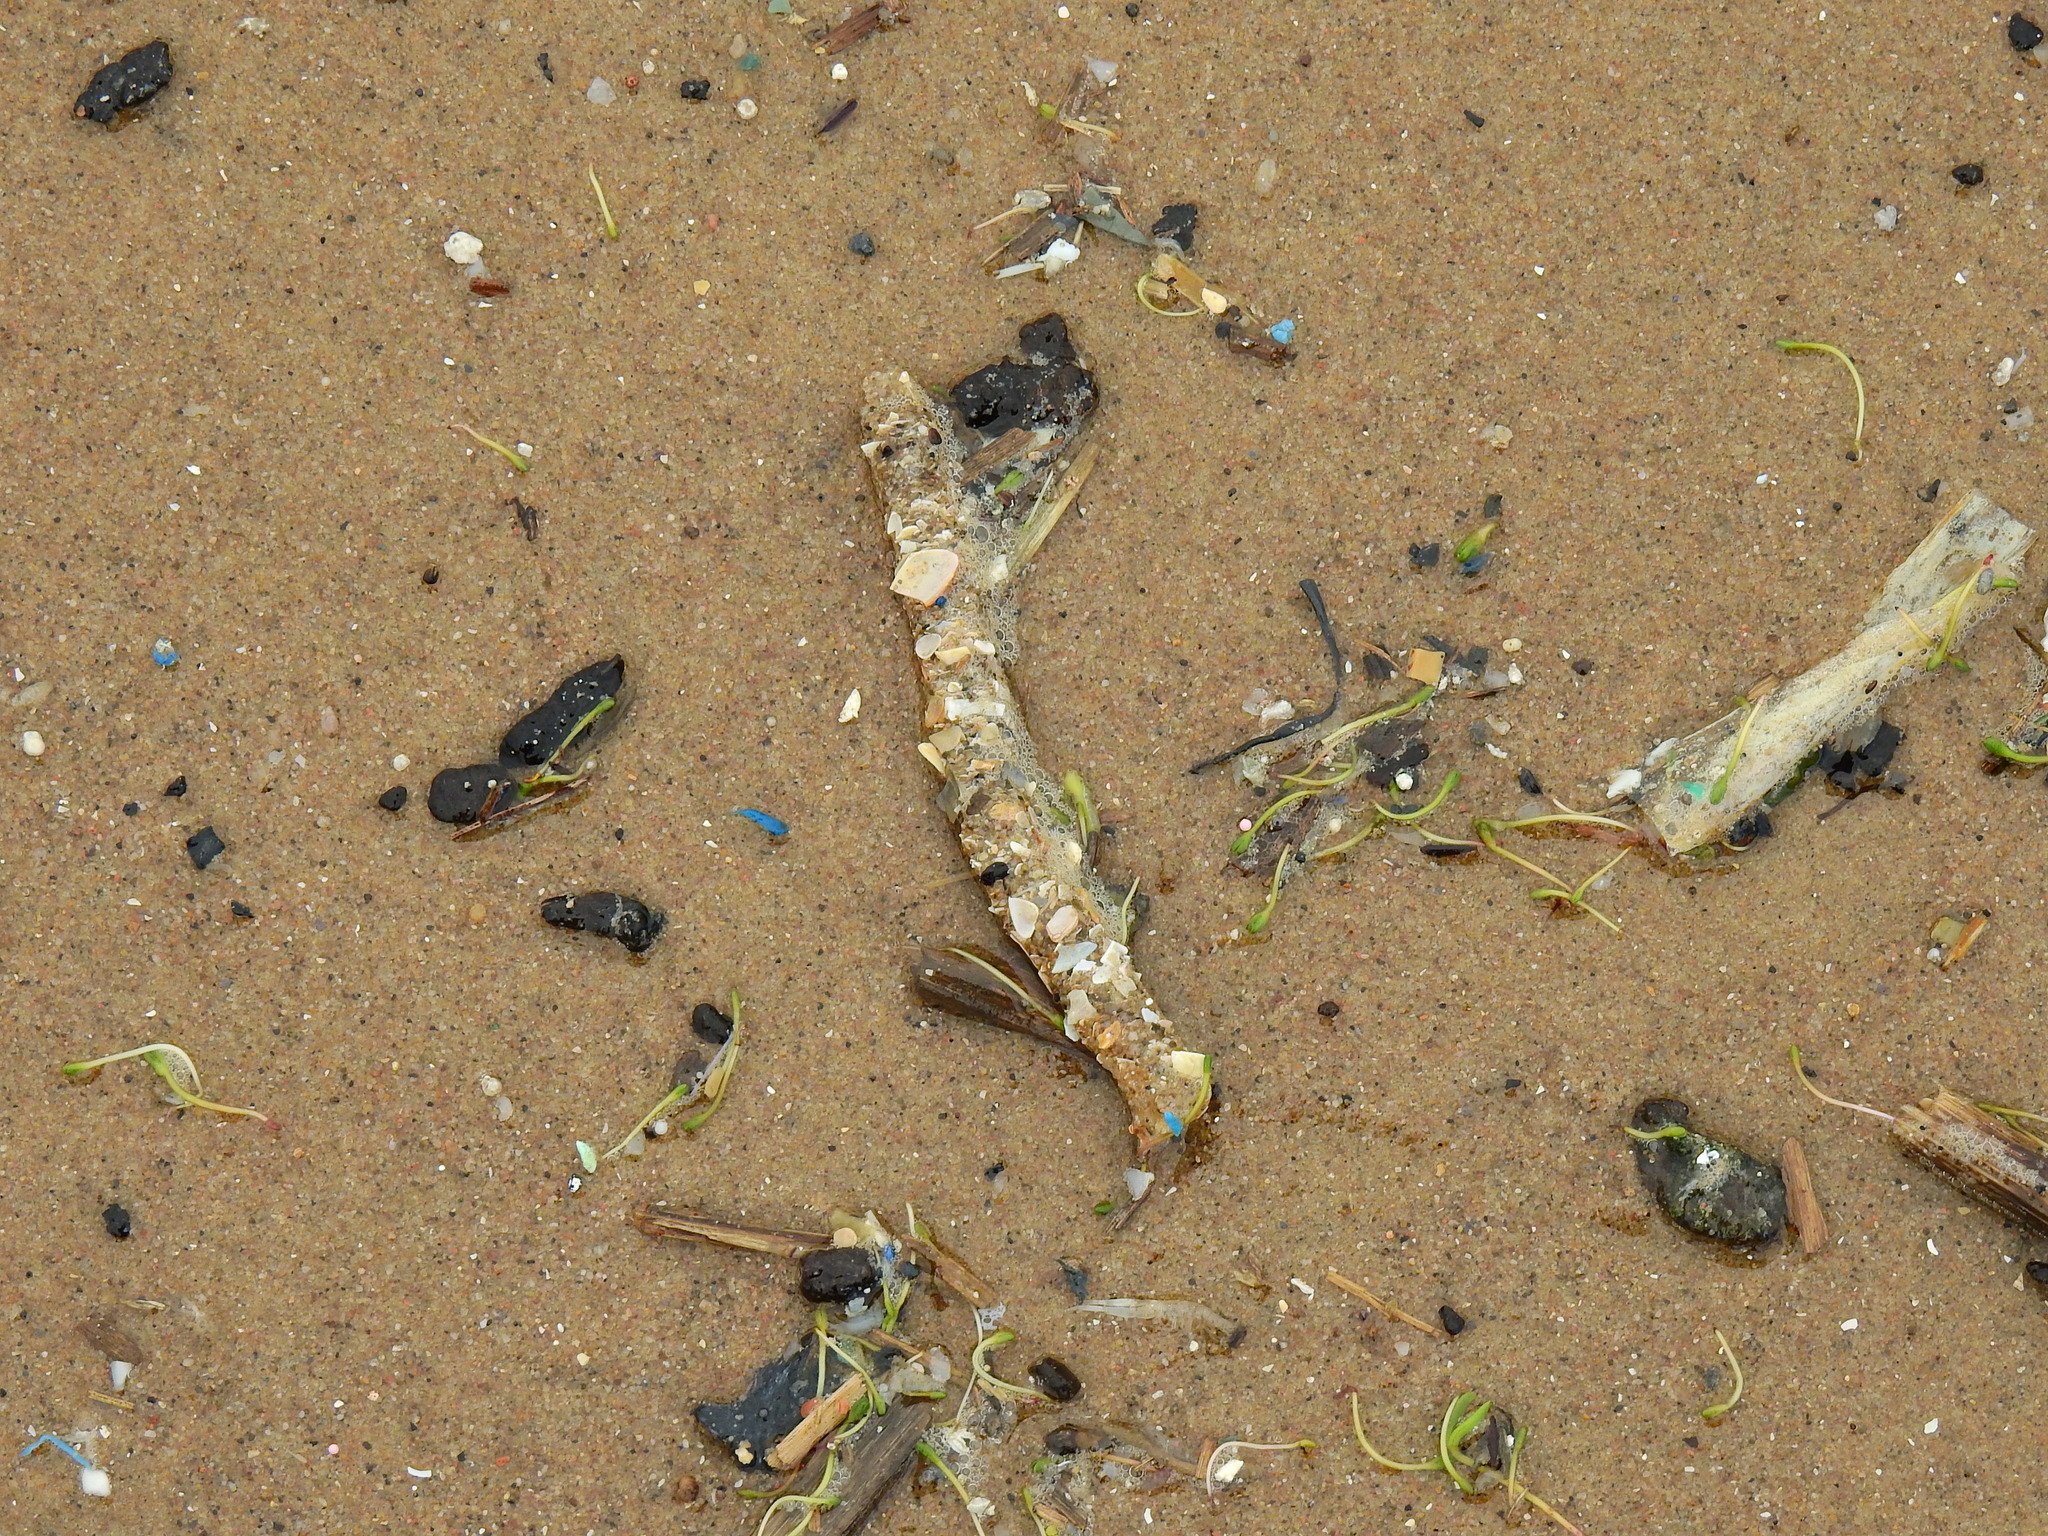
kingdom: Animalia
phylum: Annelida
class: Polychaeta
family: Terebellidae
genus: Lanice
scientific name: Lanice conchilega
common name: Sand mason
